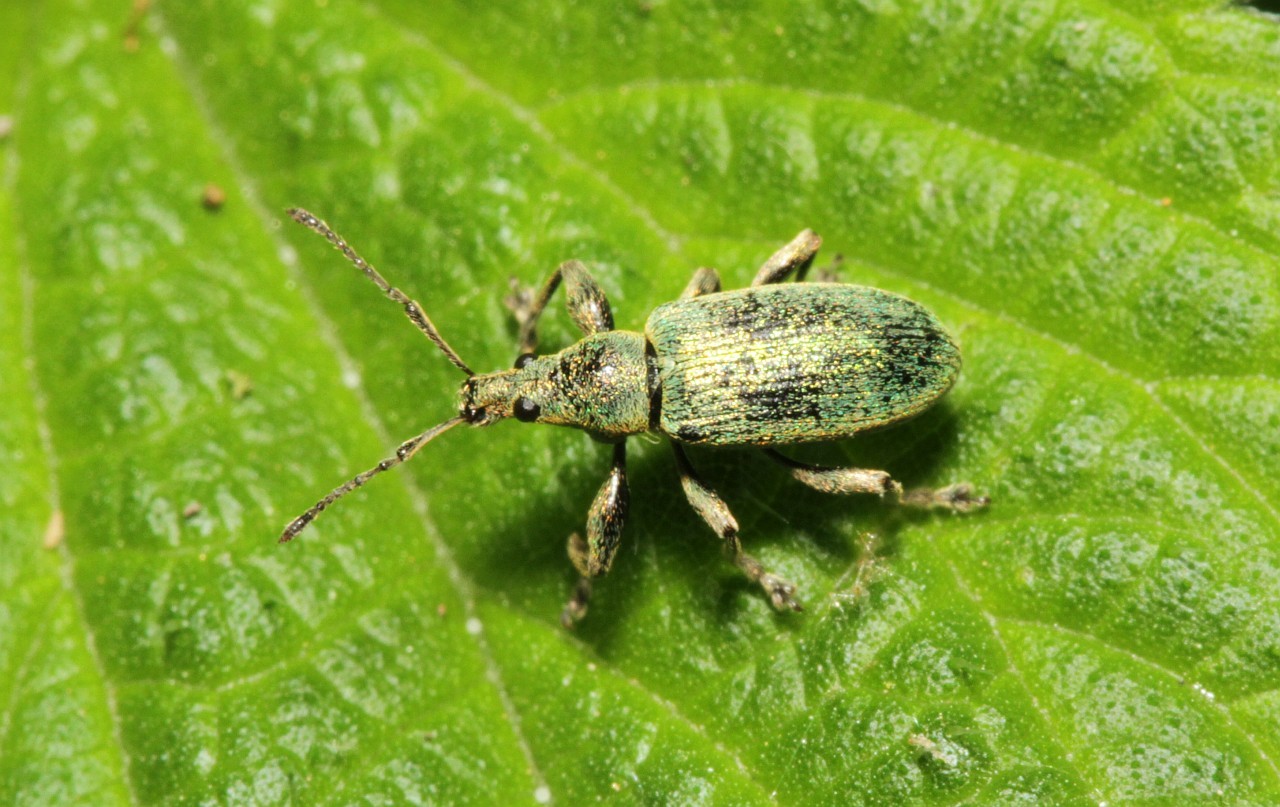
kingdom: Animalia
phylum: Arthropoda
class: Insecta
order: Coleoptera
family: Curculionidae
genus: Phyllobius
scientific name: Phyllobius pomaceus
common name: Green nettle weevil
